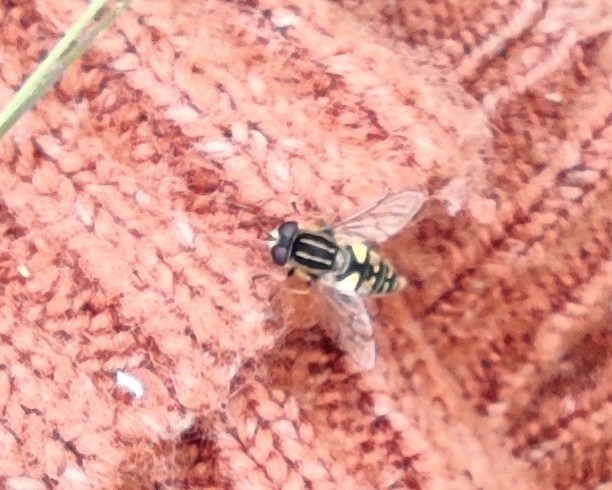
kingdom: Animalia
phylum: Arthropoda
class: Insecta
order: Diptera
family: Syrphidae
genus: Helophilus
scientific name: Helophilus pendulus
